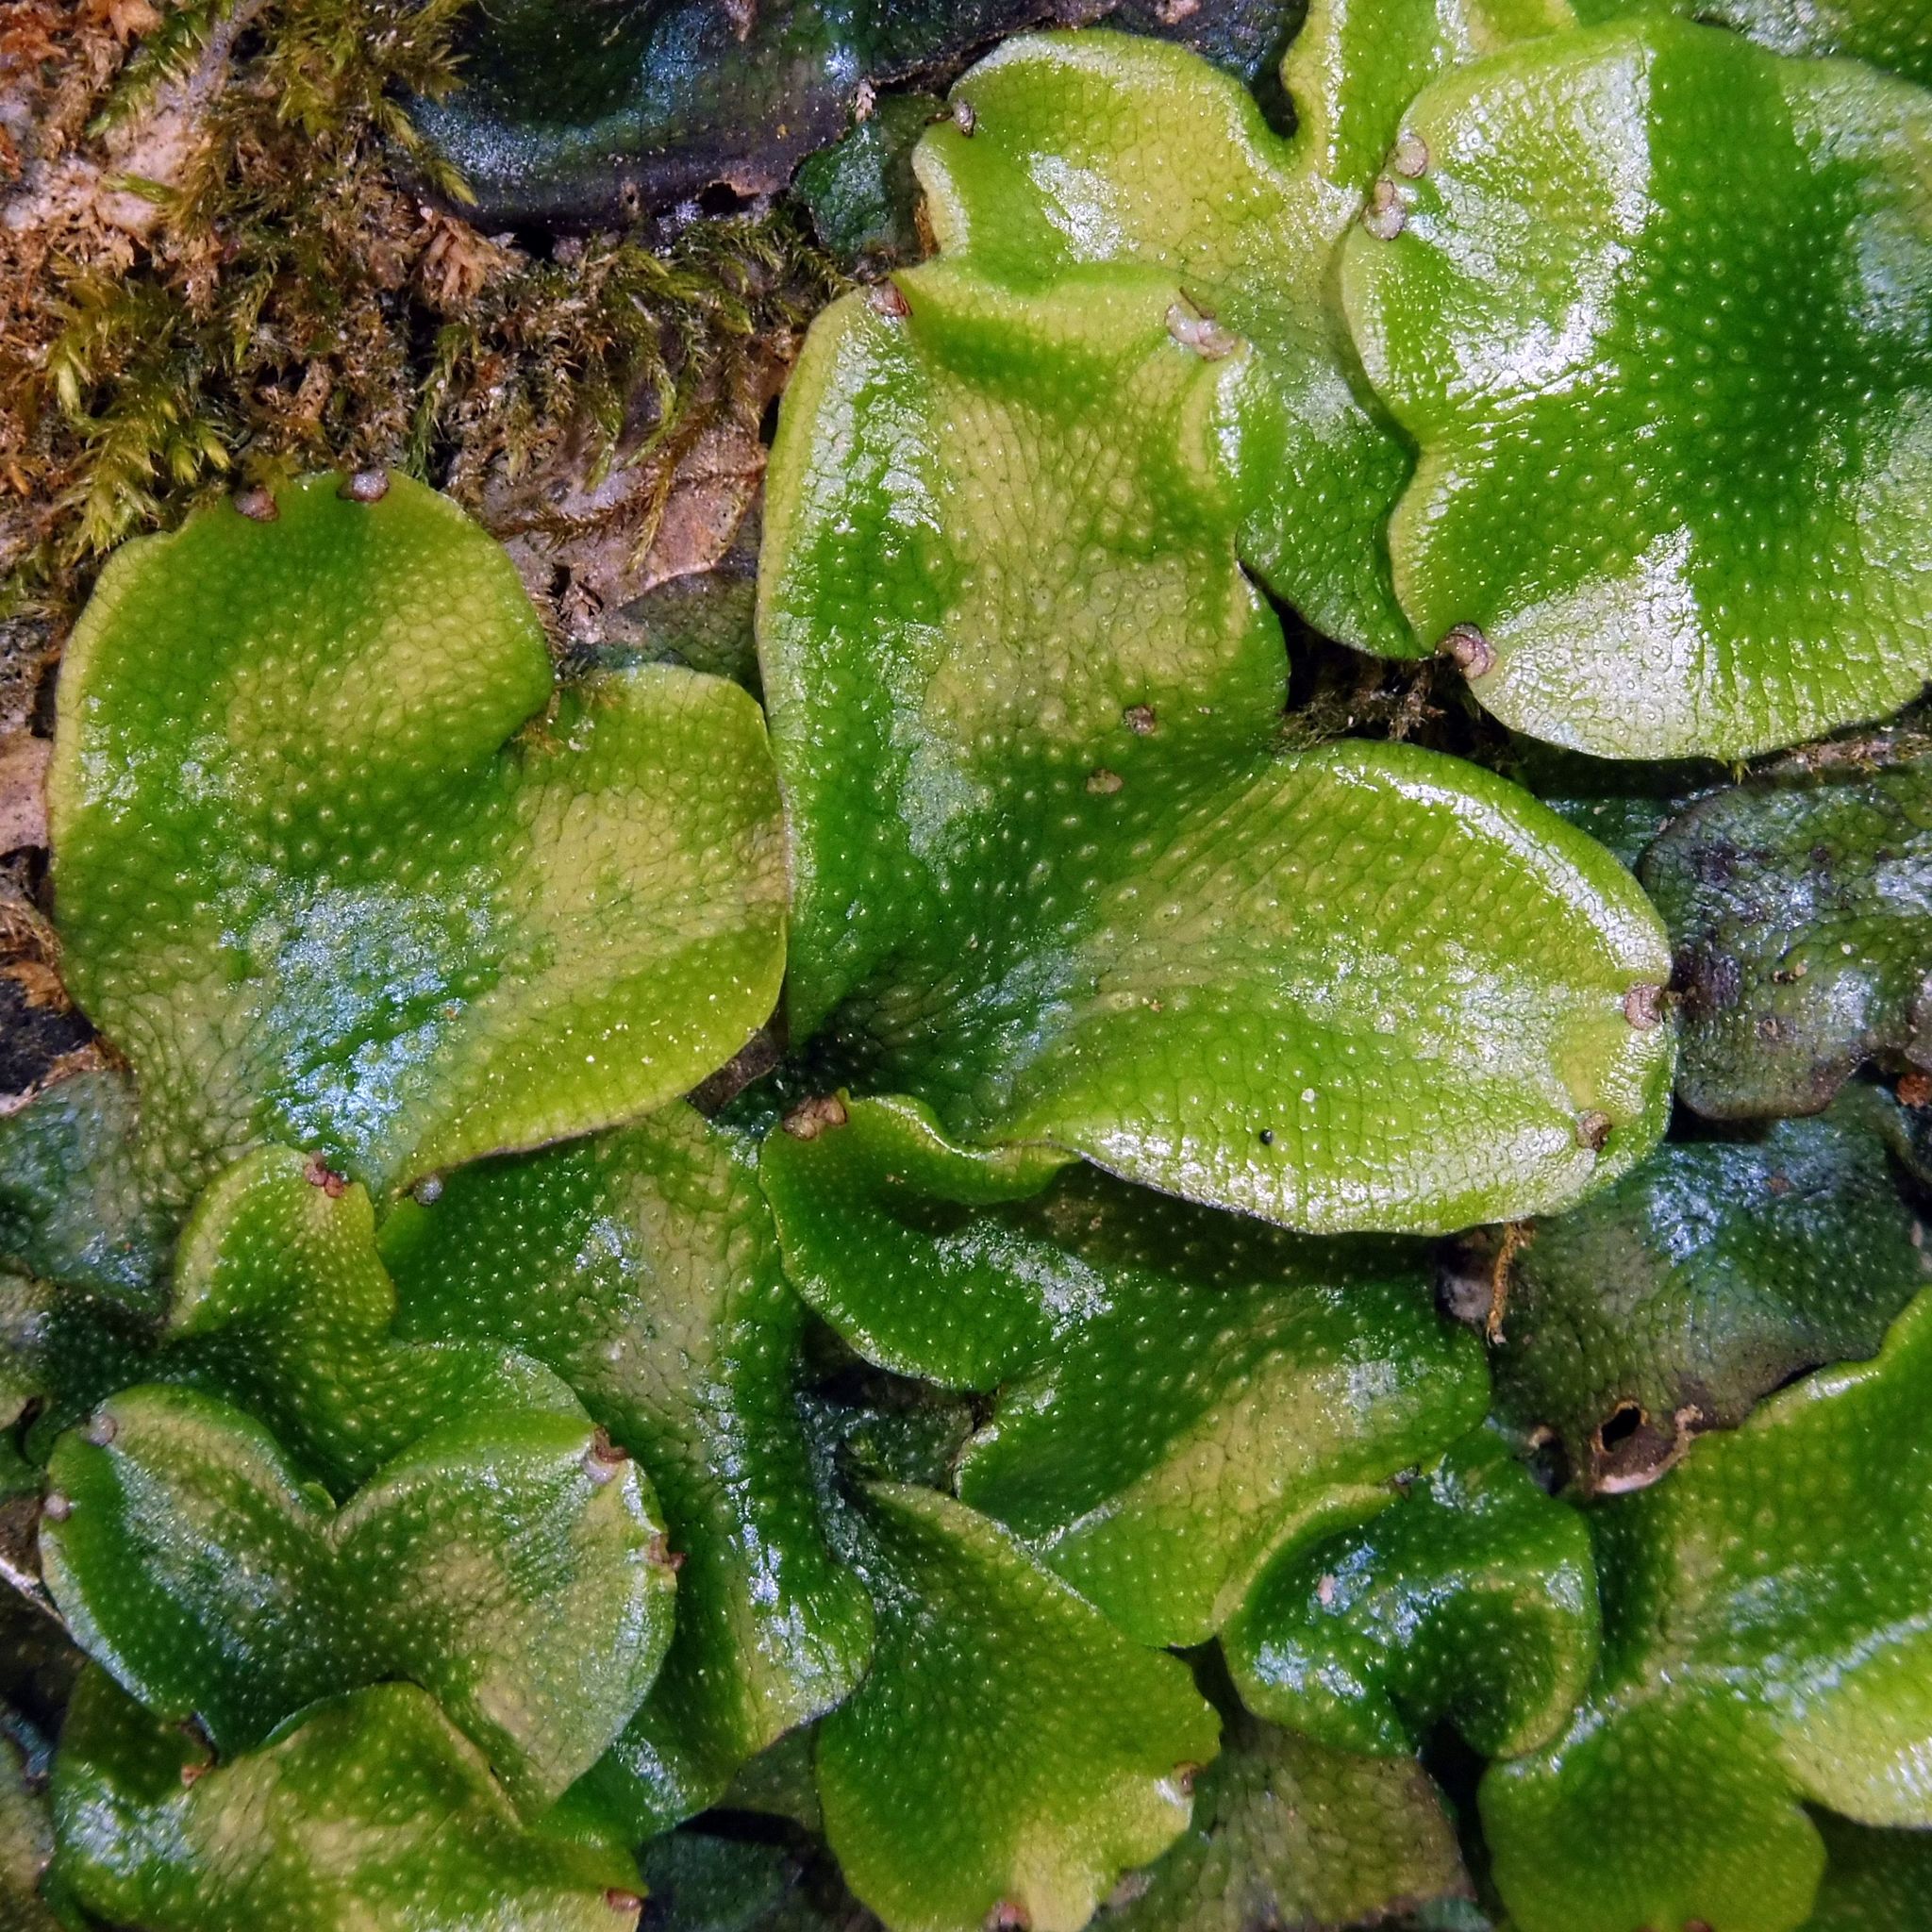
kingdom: Plantae
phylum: Marchantiophyta
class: Marchantiopsida
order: Marchantiales
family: Conocephalaceae
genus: Conocephalum
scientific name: Conocephalum conicum
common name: Great scented liverwort
